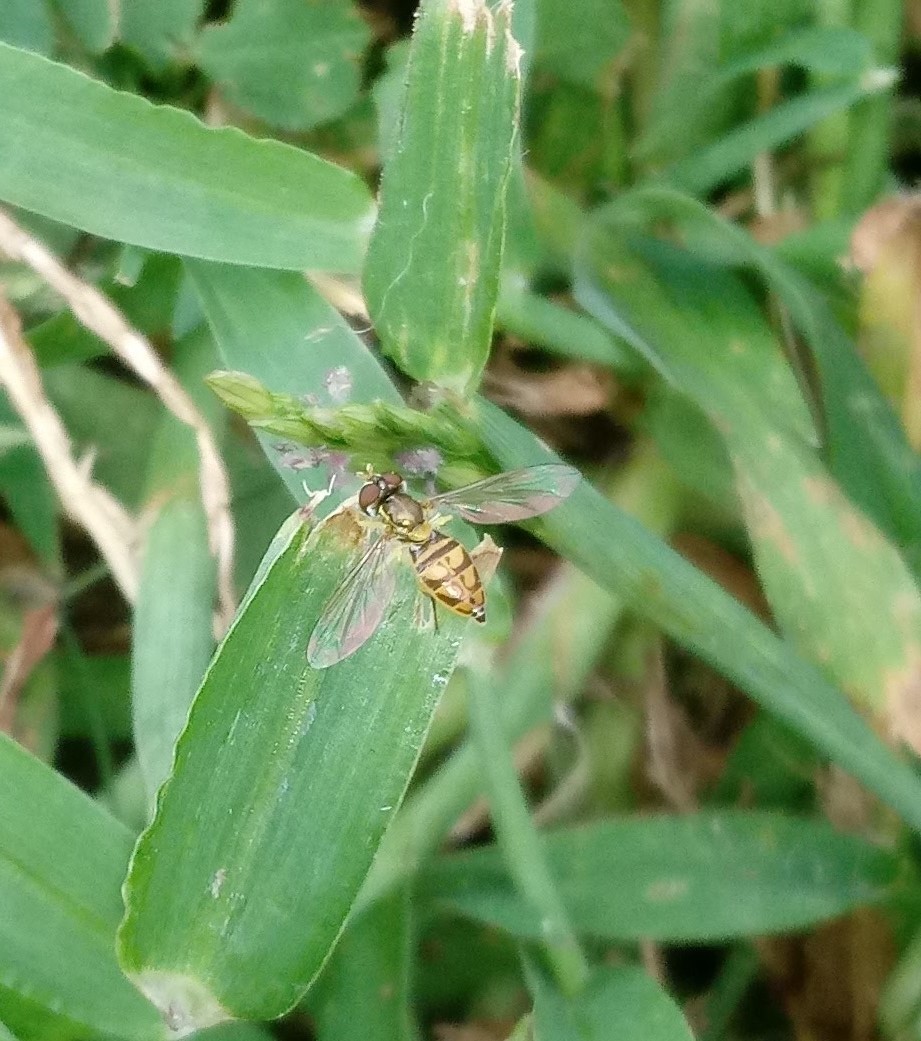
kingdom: Animalia
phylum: Arthropoda
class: Insecta
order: Diptera
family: Syrphidae
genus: Toxomerus
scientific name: Toxomerus marginatus
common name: Syrphid fly
